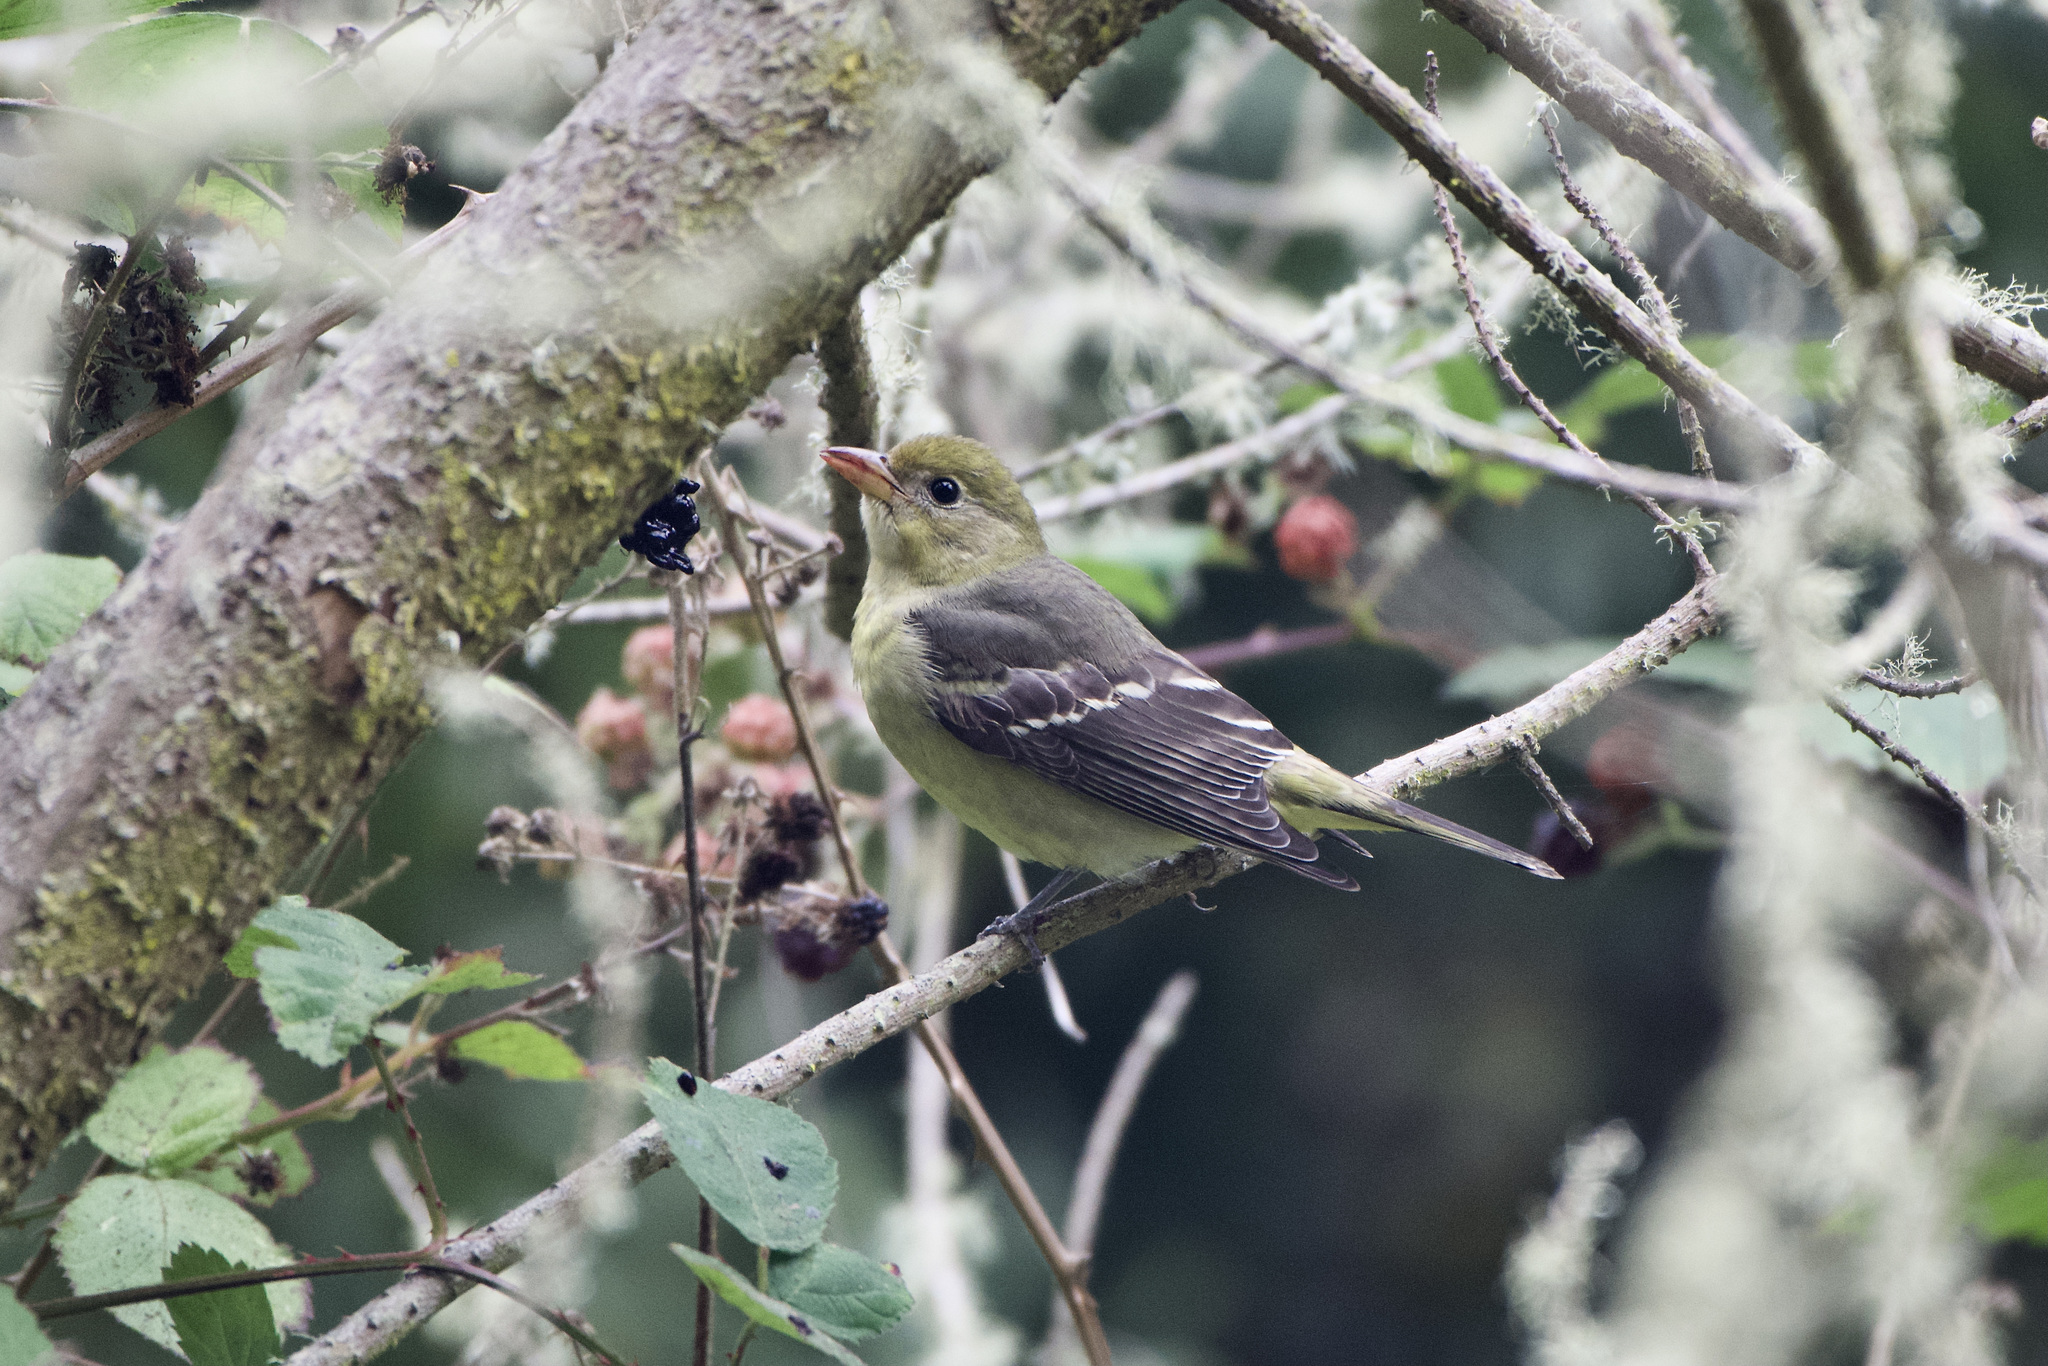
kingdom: Animalia
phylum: Chordata
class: Aves
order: Passeriformes
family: Cardinalidae
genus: Piranga
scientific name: Piranga ludoviciana
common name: Western tanager
